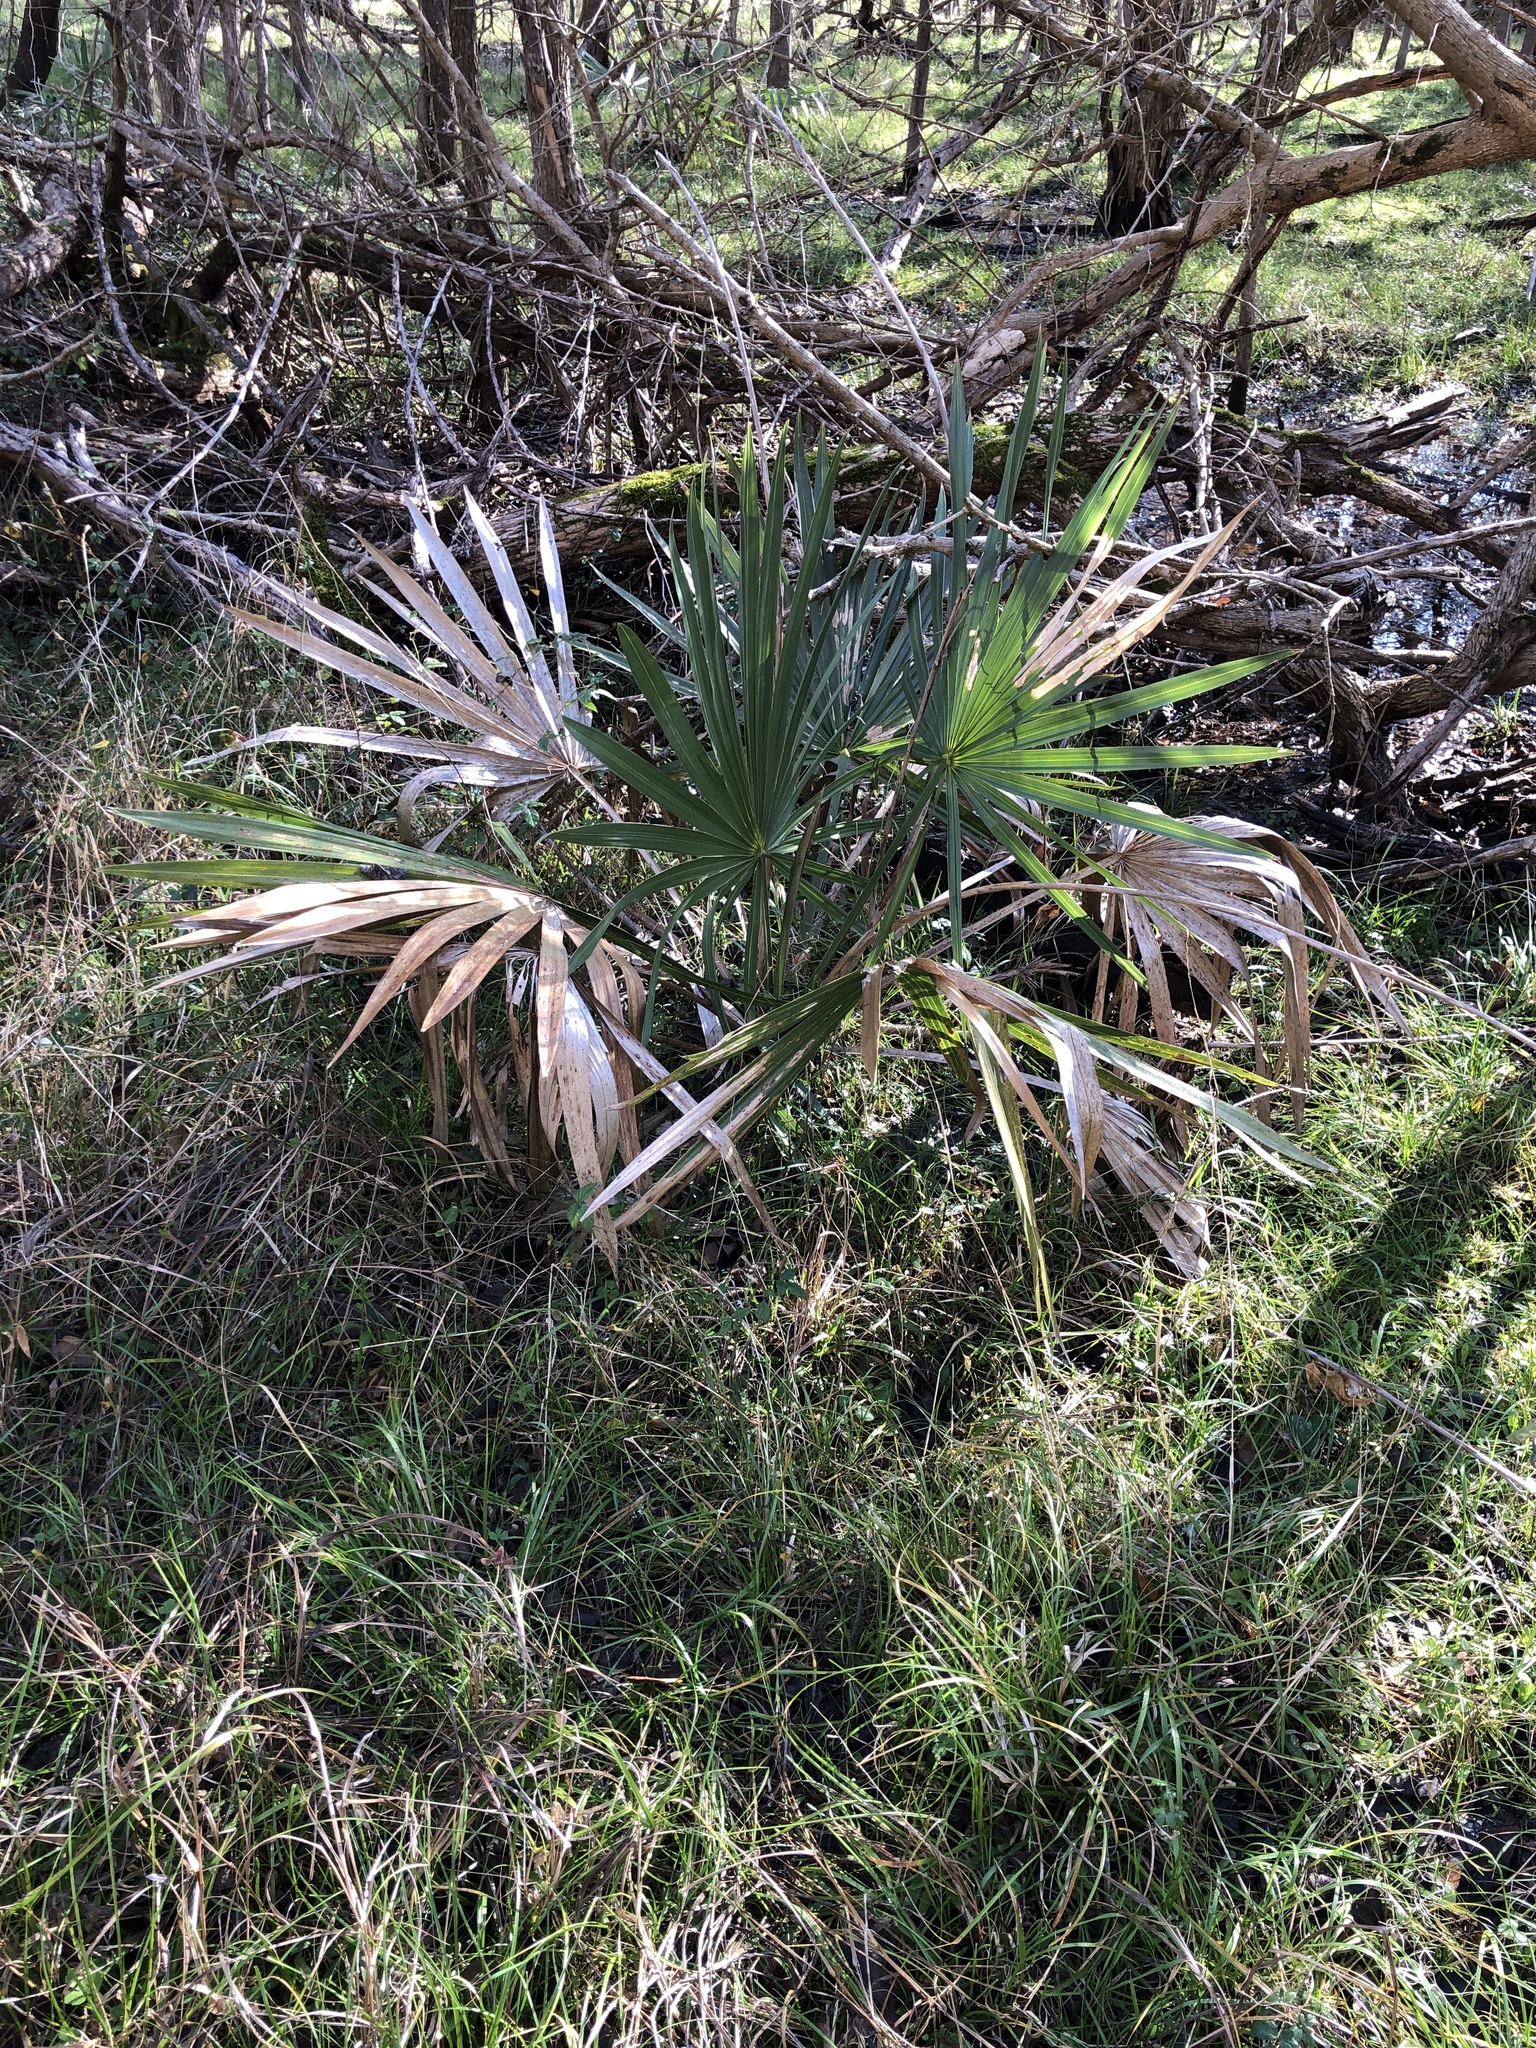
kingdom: Plantae
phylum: Tracheophyta
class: Liliopsida
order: Arecales
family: Arecaceae
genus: Sabal
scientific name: Sabal minor
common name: Dwarf palmetto
